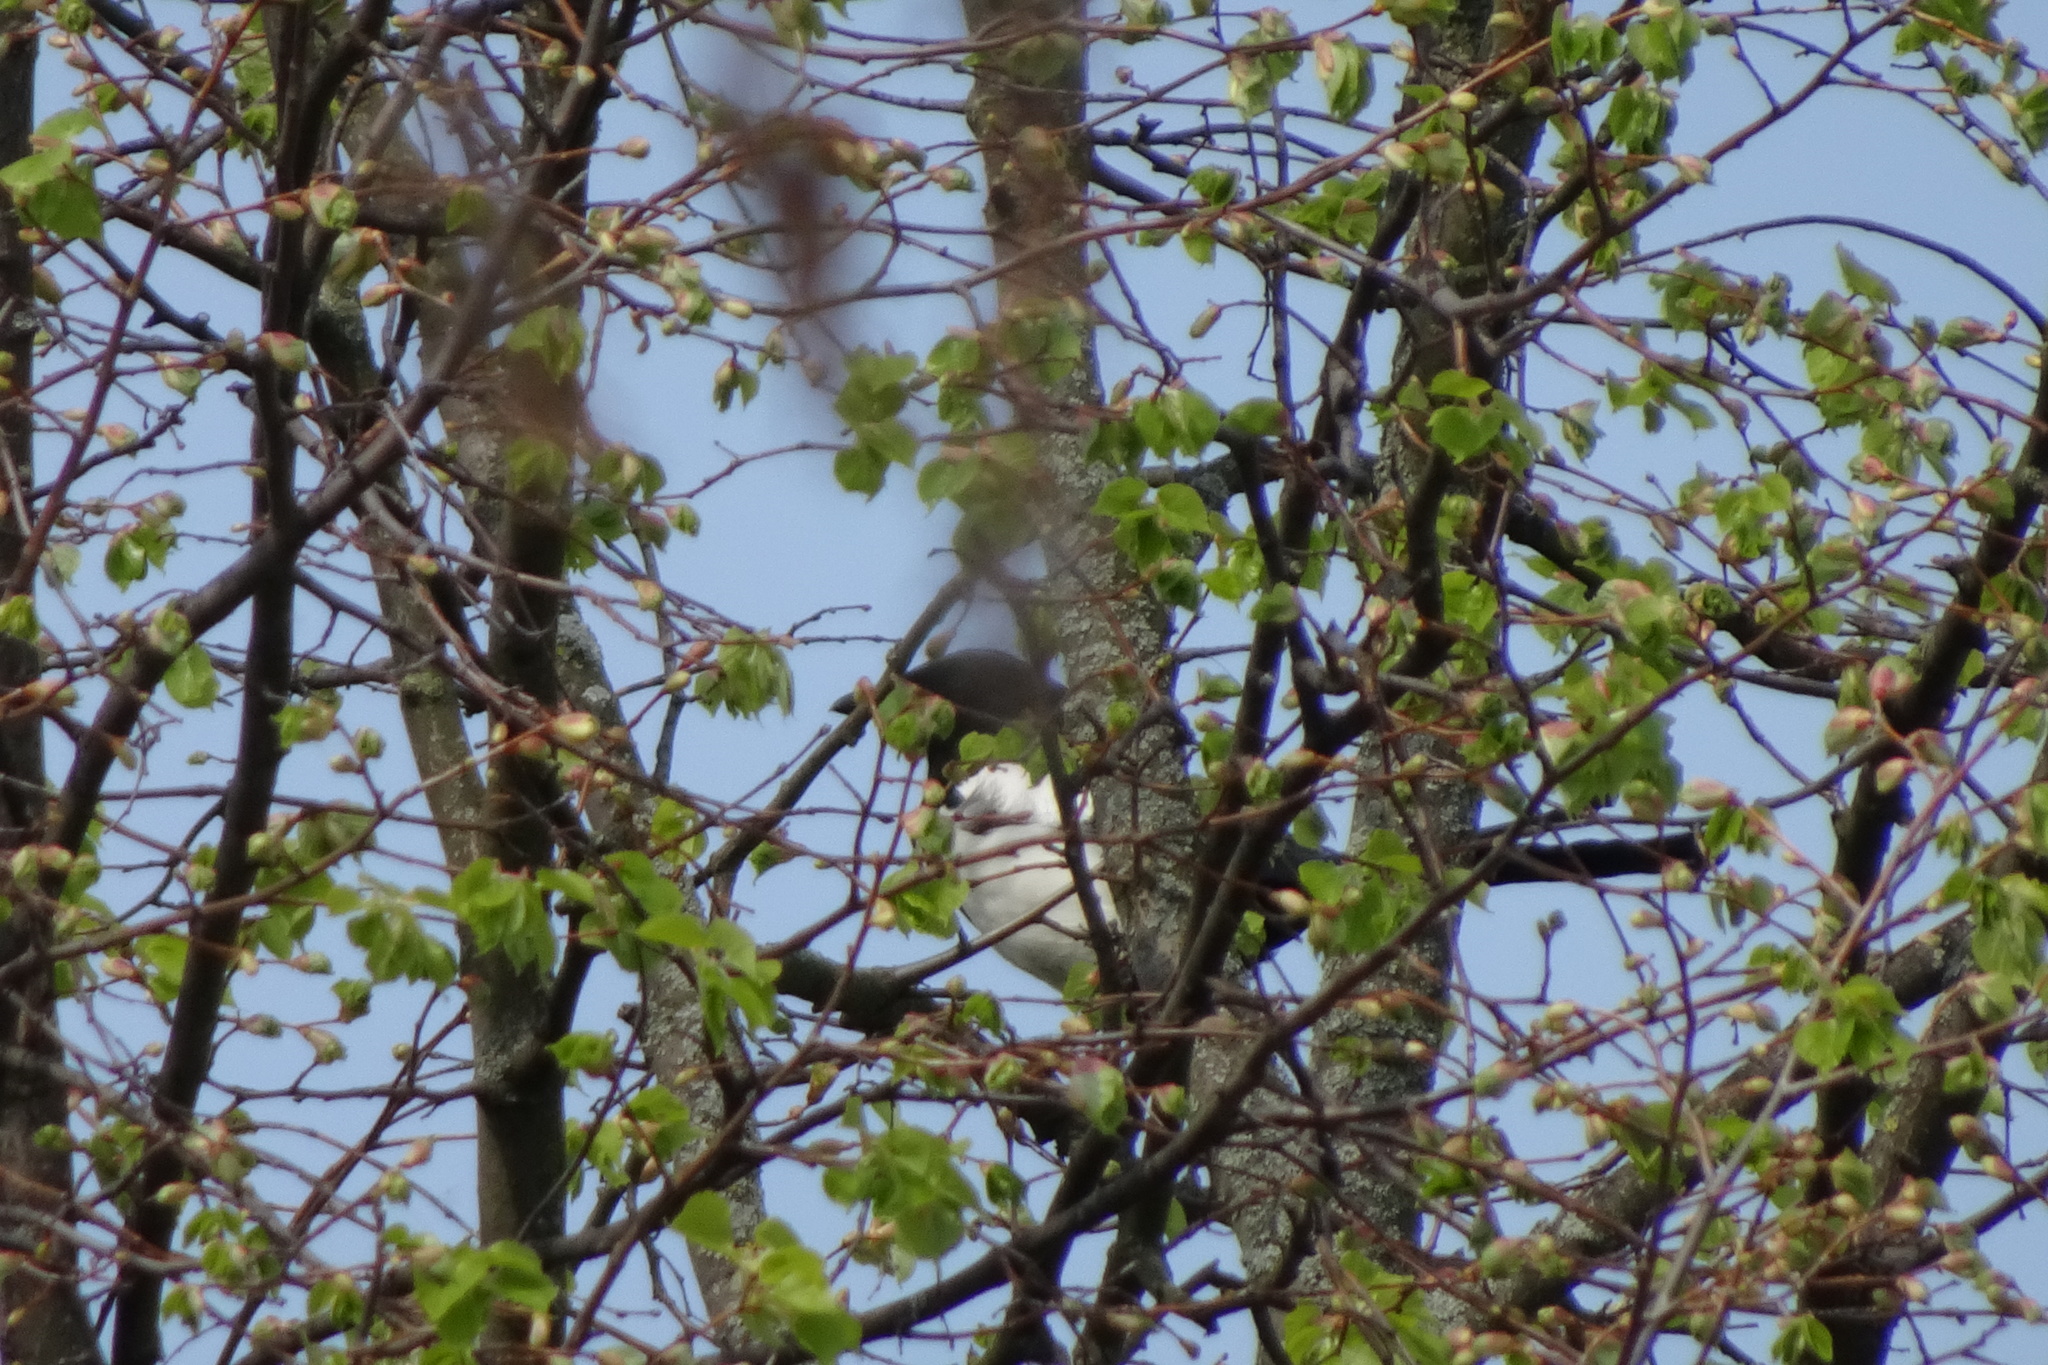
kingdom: Animalia
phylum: Chordata
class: Aves
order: Passeriformes
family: Corvidae
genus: Pica
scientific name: Pica pica
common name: Eurasian magpie
